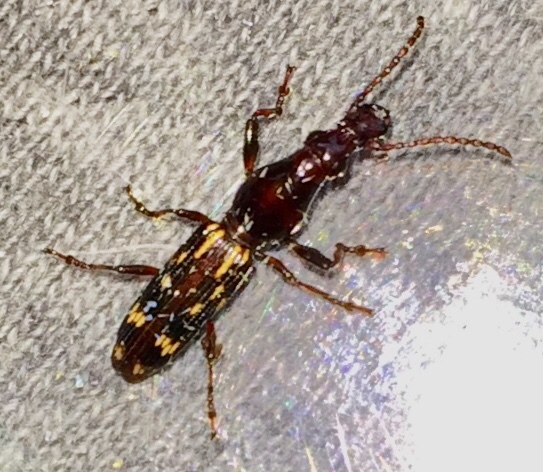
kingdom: Animalia
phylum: Arthropoda
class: Insecta
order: Coleoptera
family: Brentidae
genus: Arrenodes
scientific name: Arrenodes minutus
